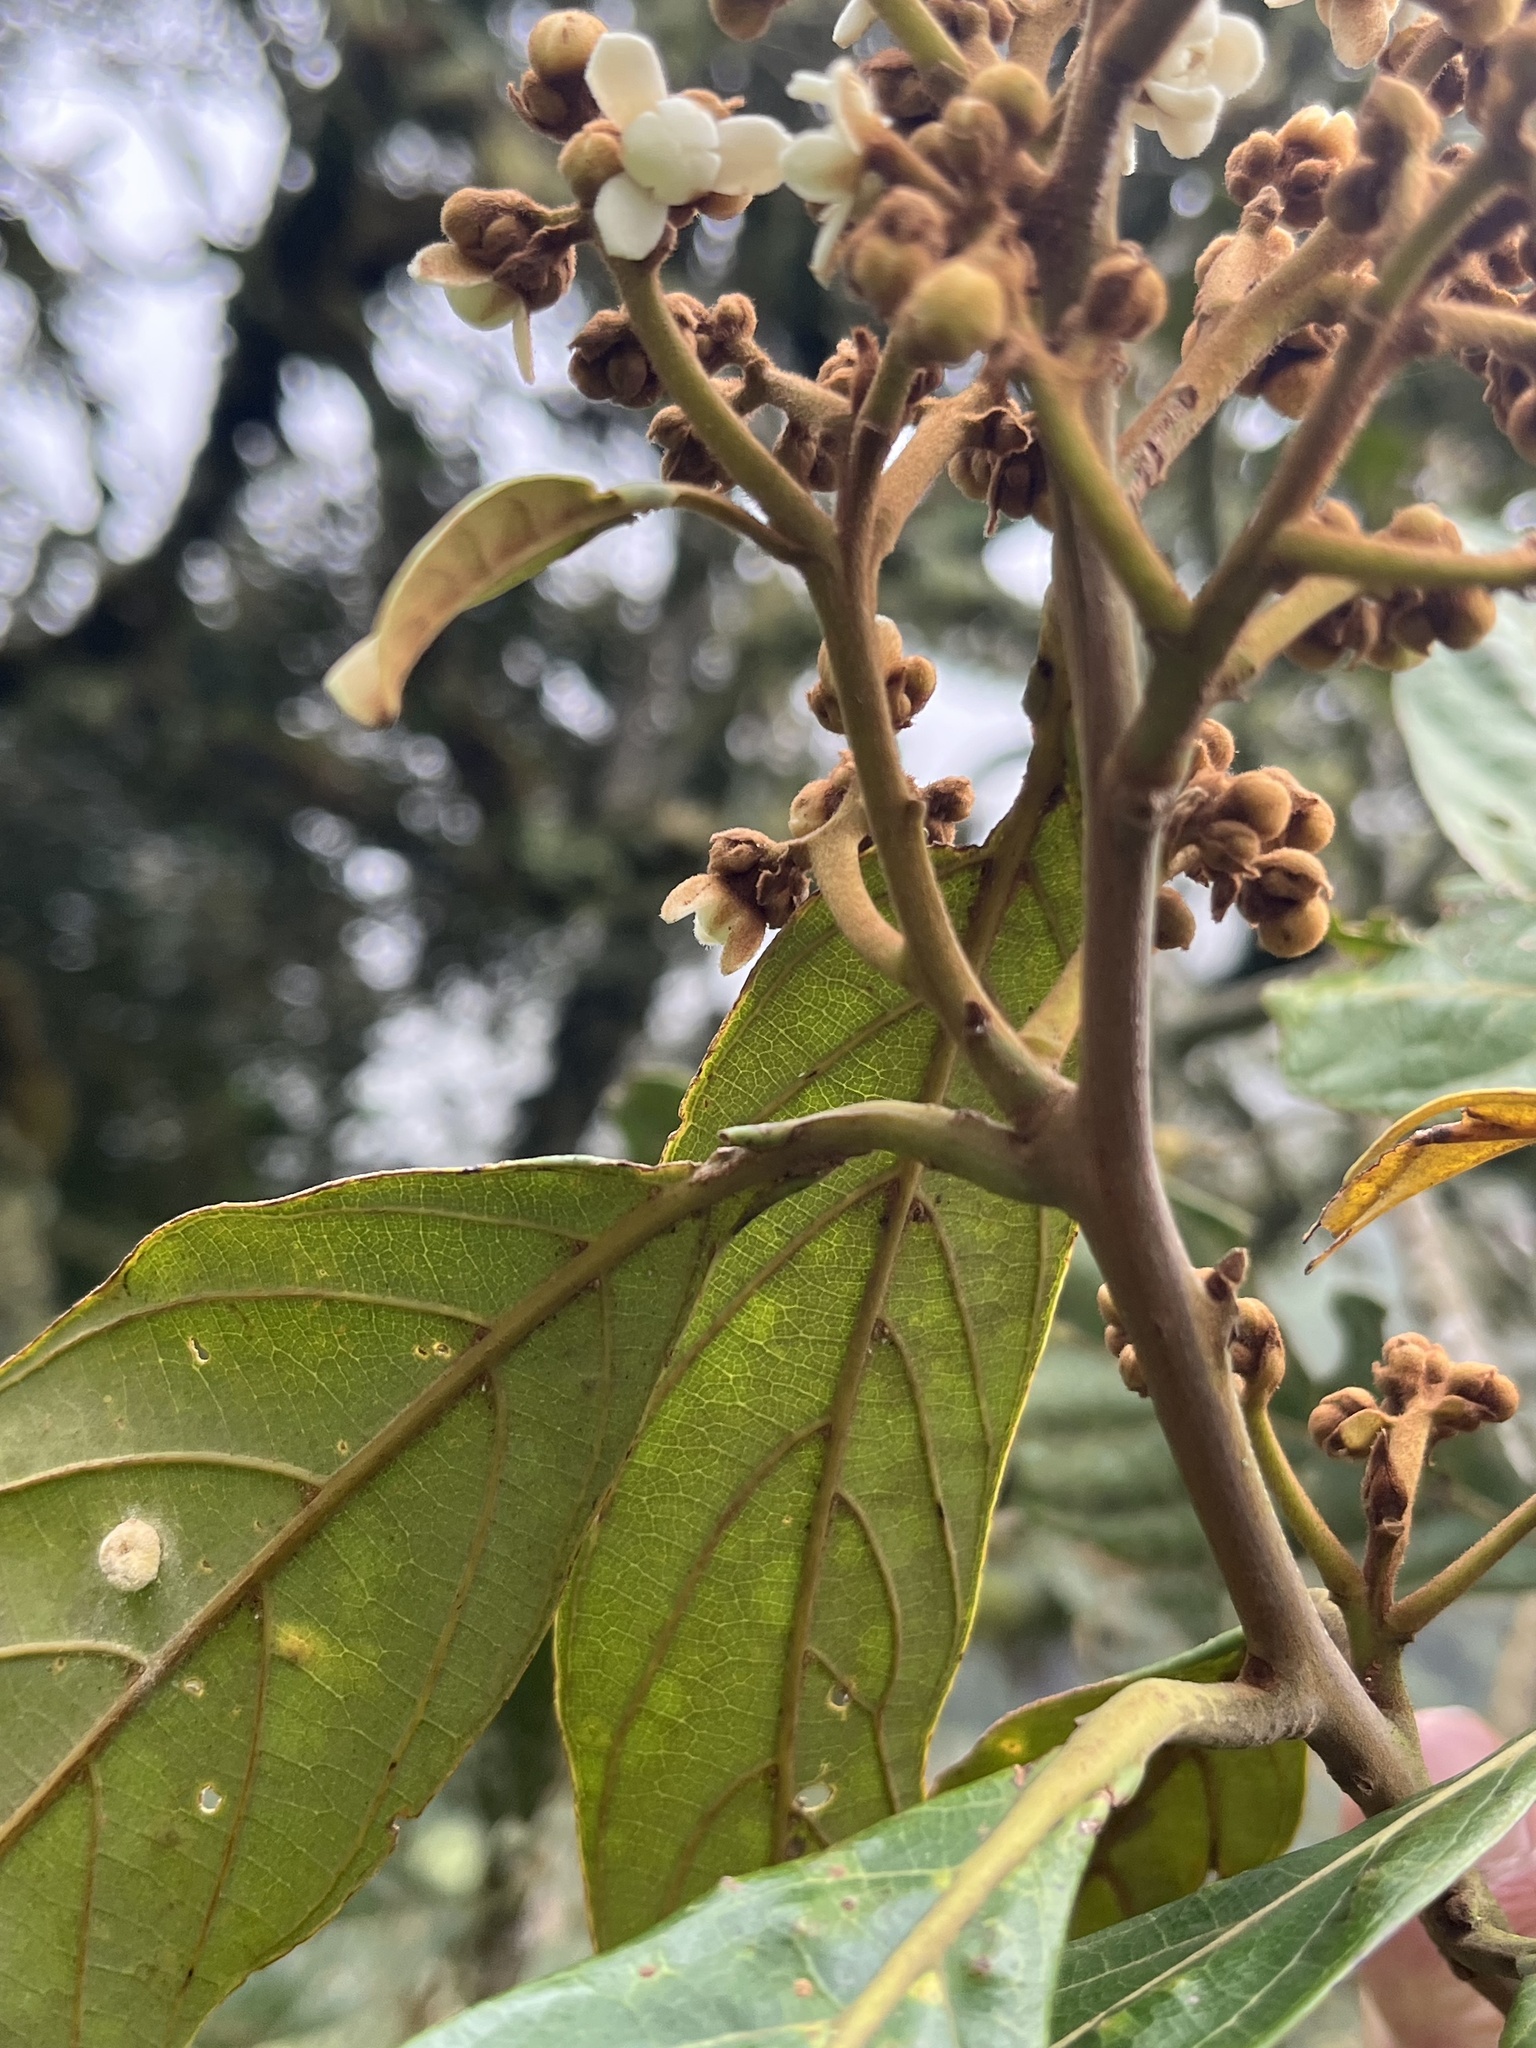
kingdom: Plantae
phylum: Tracheophyta
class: Magnoliopsida
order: Laurales
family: Lauraceae
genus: Nectandra
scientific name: Nectandra discolor
